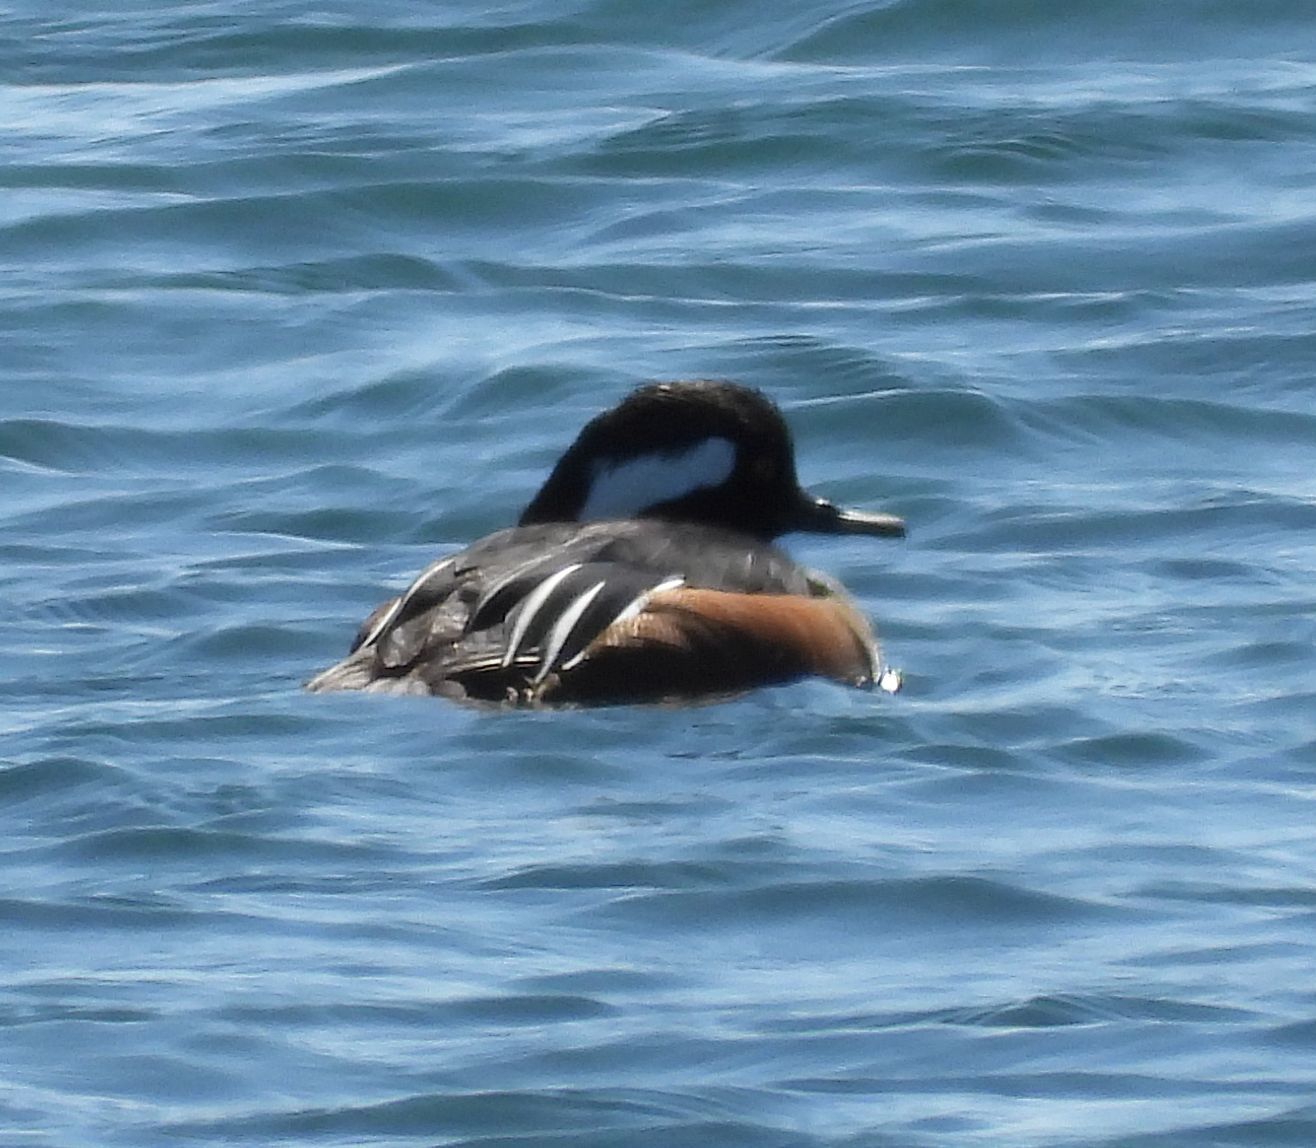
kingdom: Animalia
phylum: Chordata
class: Aves
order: Anseriformes
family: Anatidae
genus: Lophodytes
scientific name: Lophodytes cucullatus
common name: Hooded merganser
